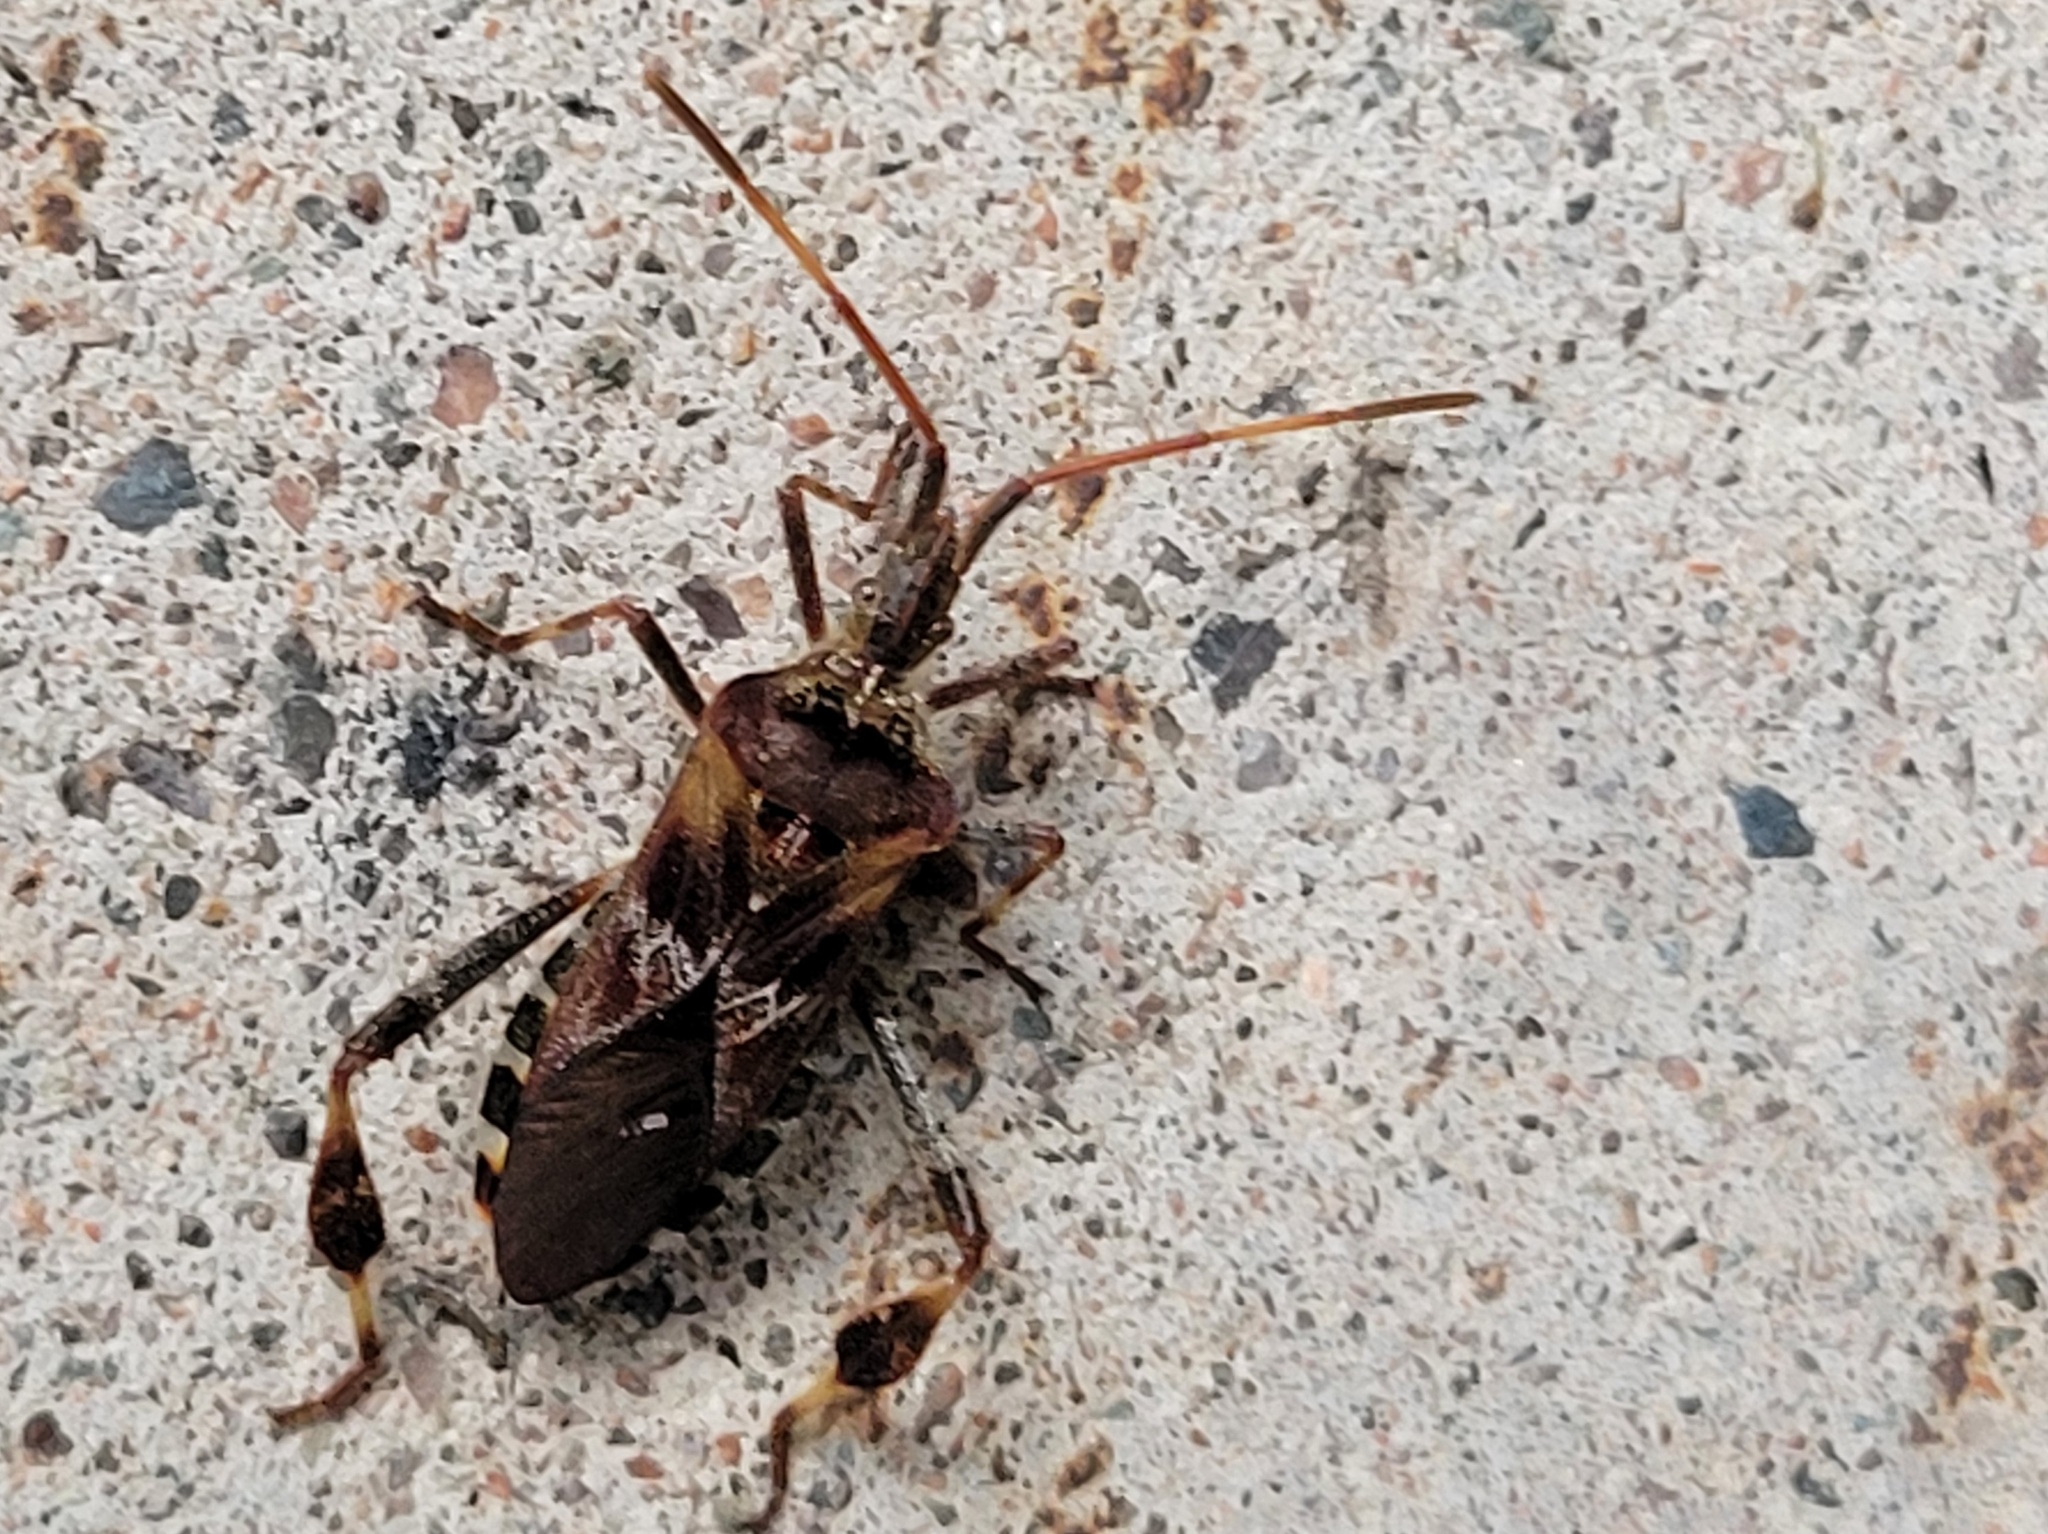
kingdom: Animalia
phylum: Arthropoda
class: Insecta
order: Hemiptera
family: Coreidae
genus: Leptoglossus
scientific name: Leptoglossus occidentalis
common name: Western conifer-seed bug
